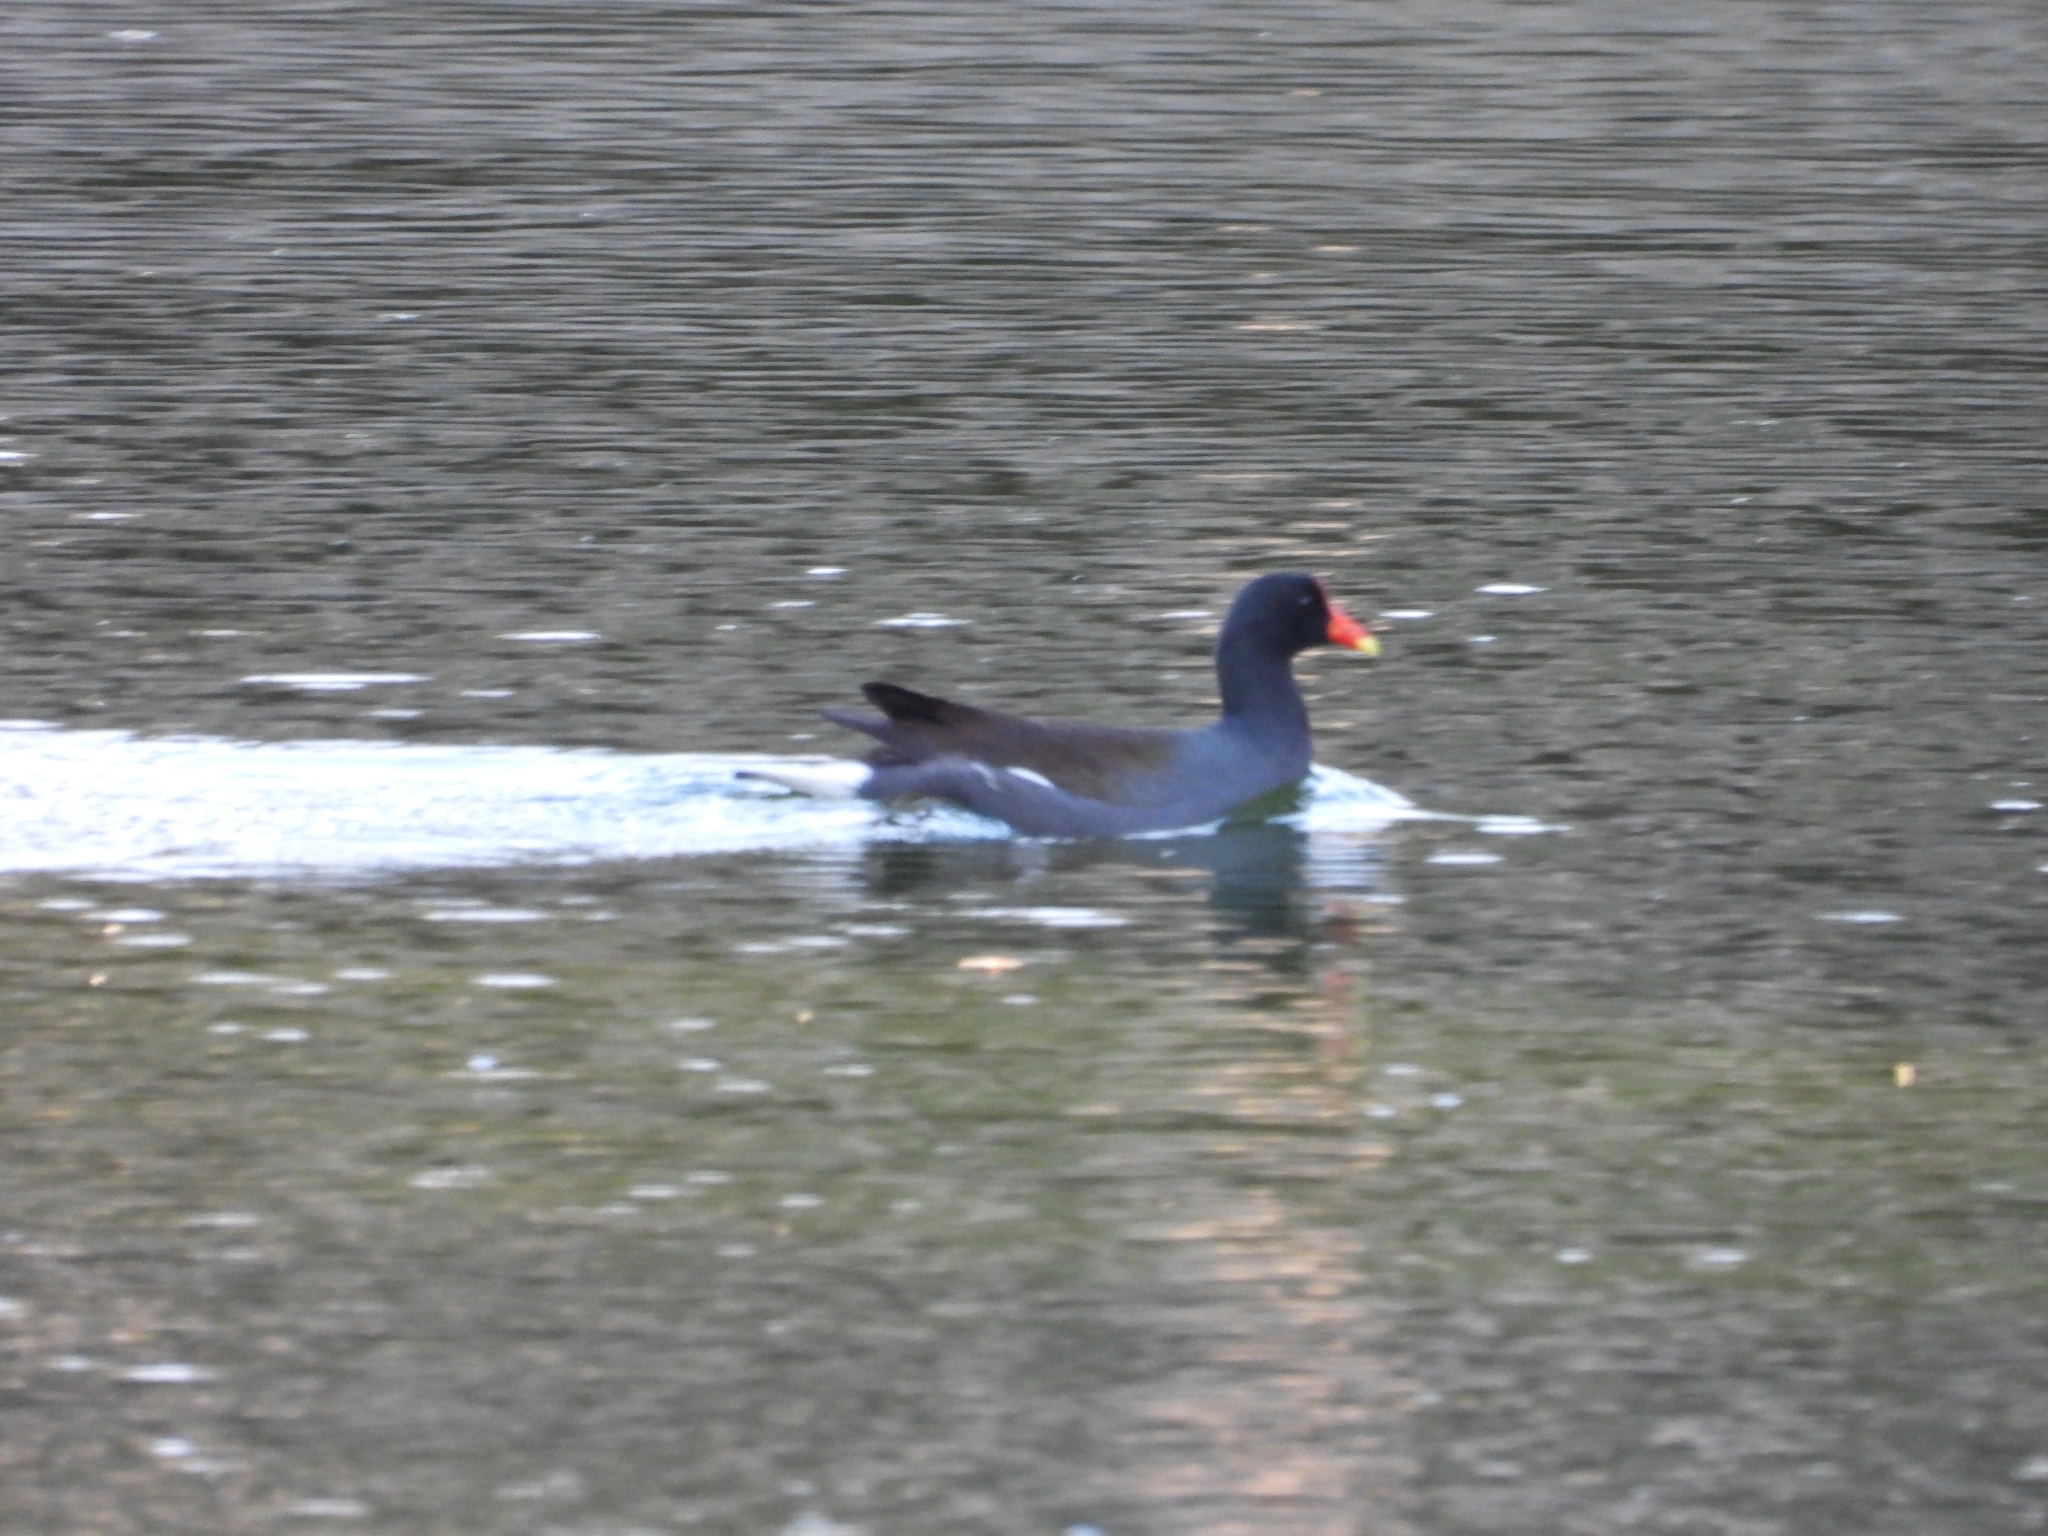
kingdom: Animalia
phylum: Chordata
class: Aves
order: Gruiformes
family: Rallidae
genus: Gallinula
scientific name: Gallinula chloropus
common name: Common moorhen
